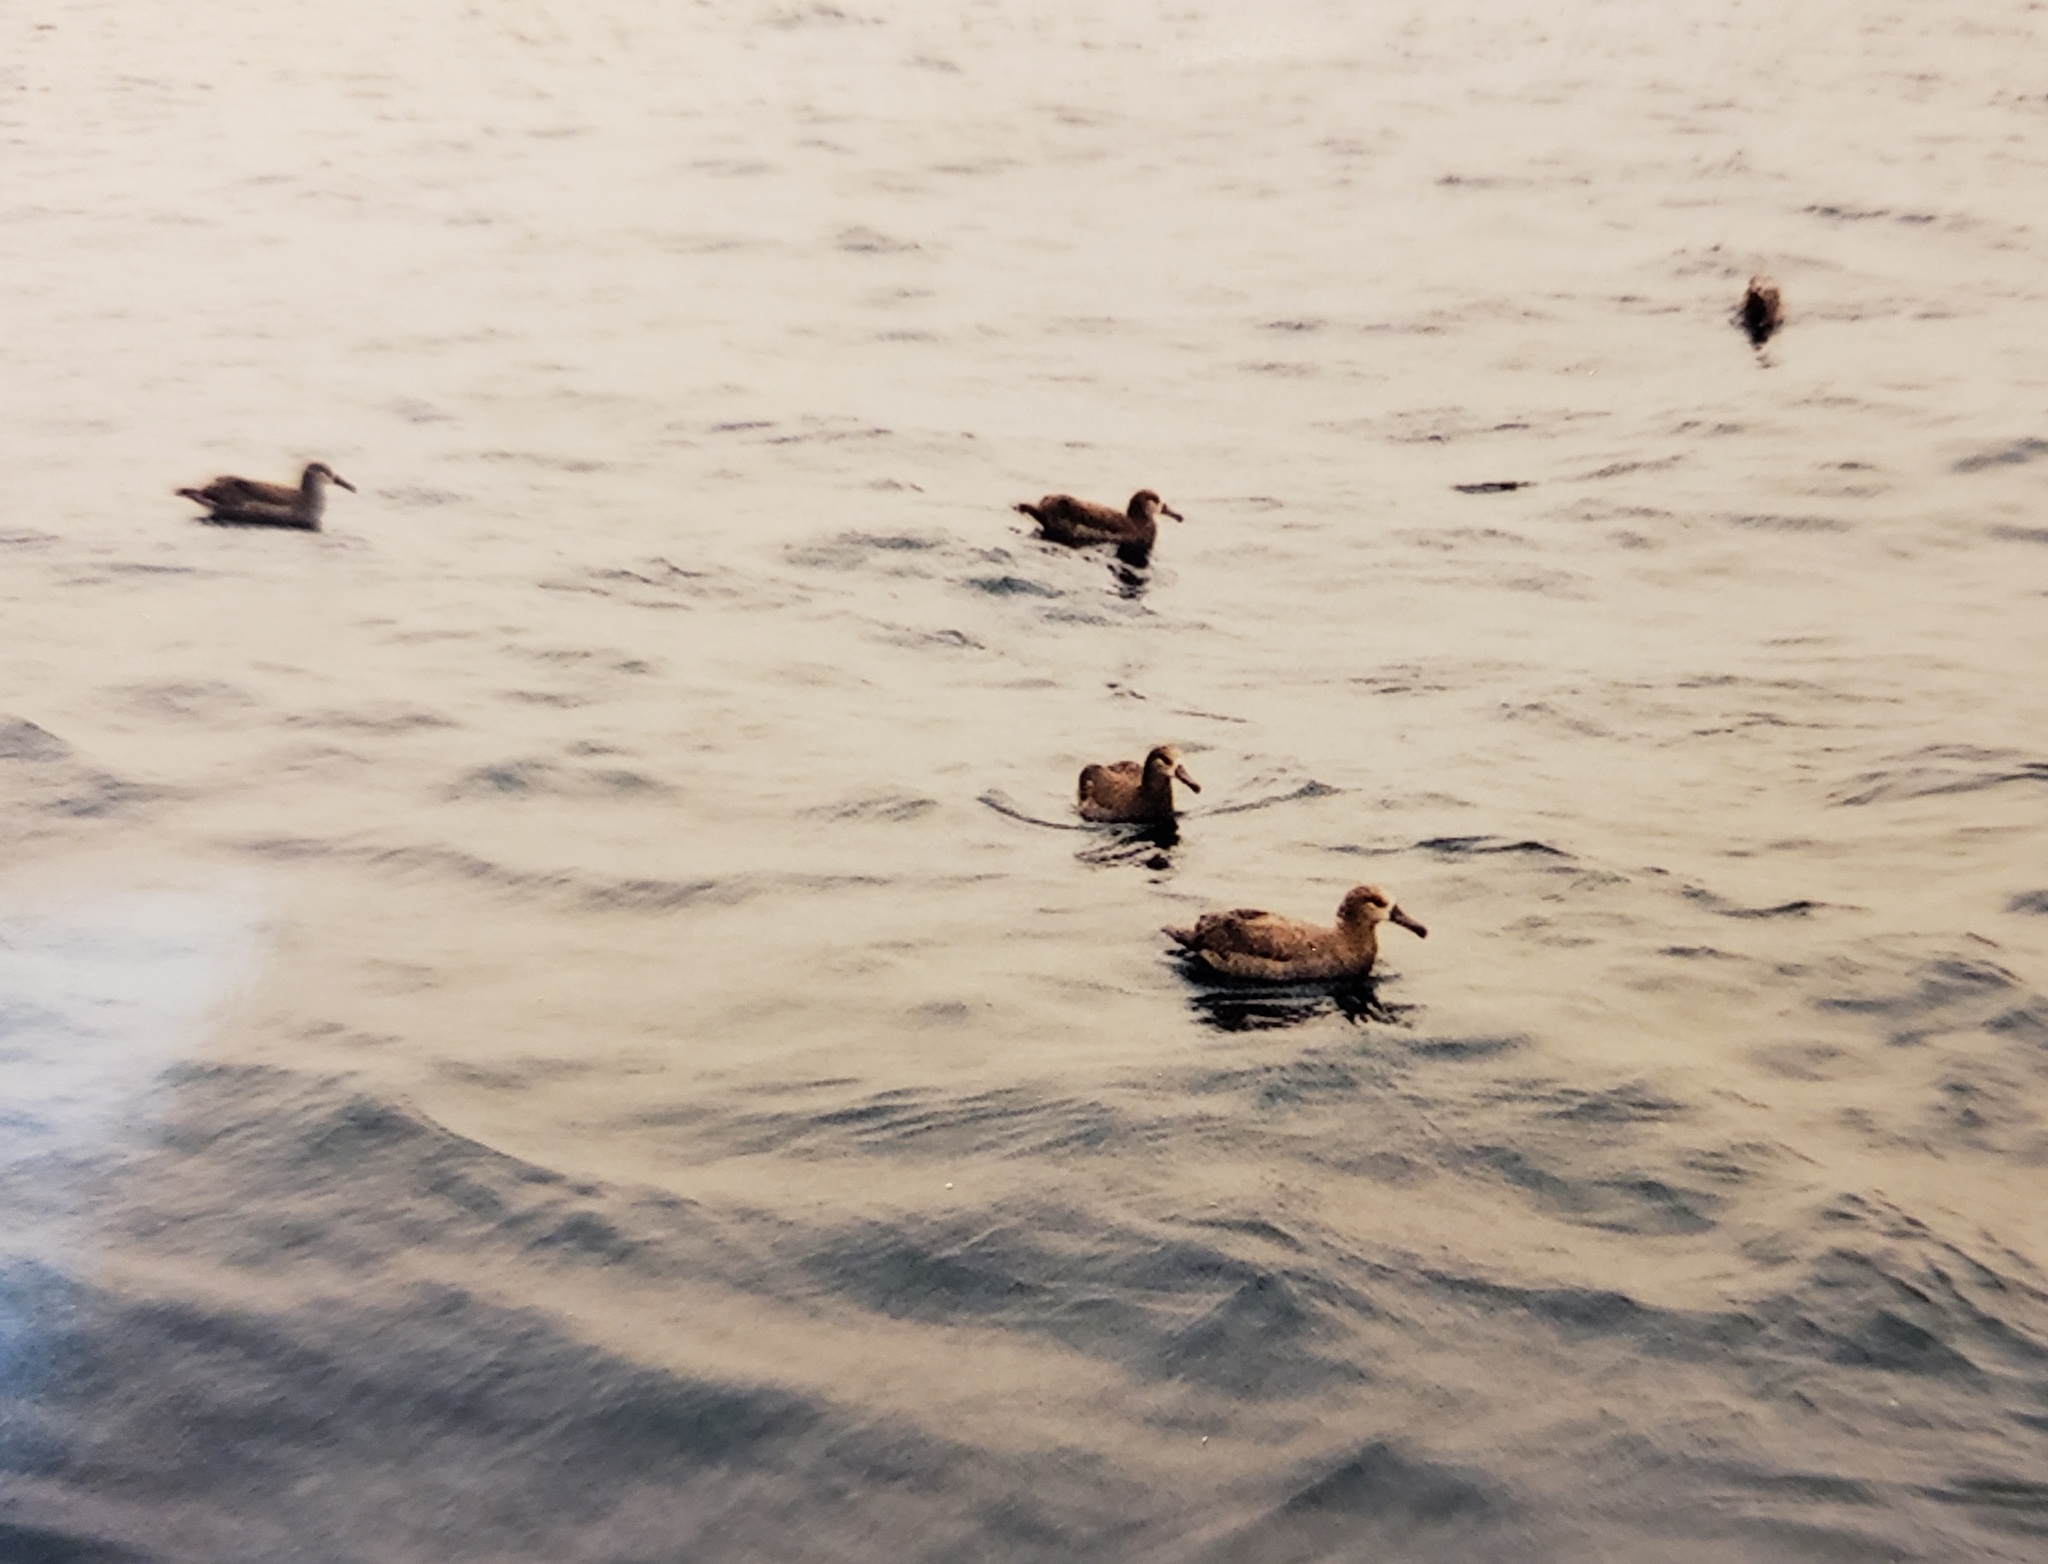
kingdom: Animalia
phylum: Chordata
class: Aves
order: Procellariiformes
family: Diomedeidae
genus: Phoebastria
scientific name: Phoebastria nigripes
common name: Black-footed albatross
